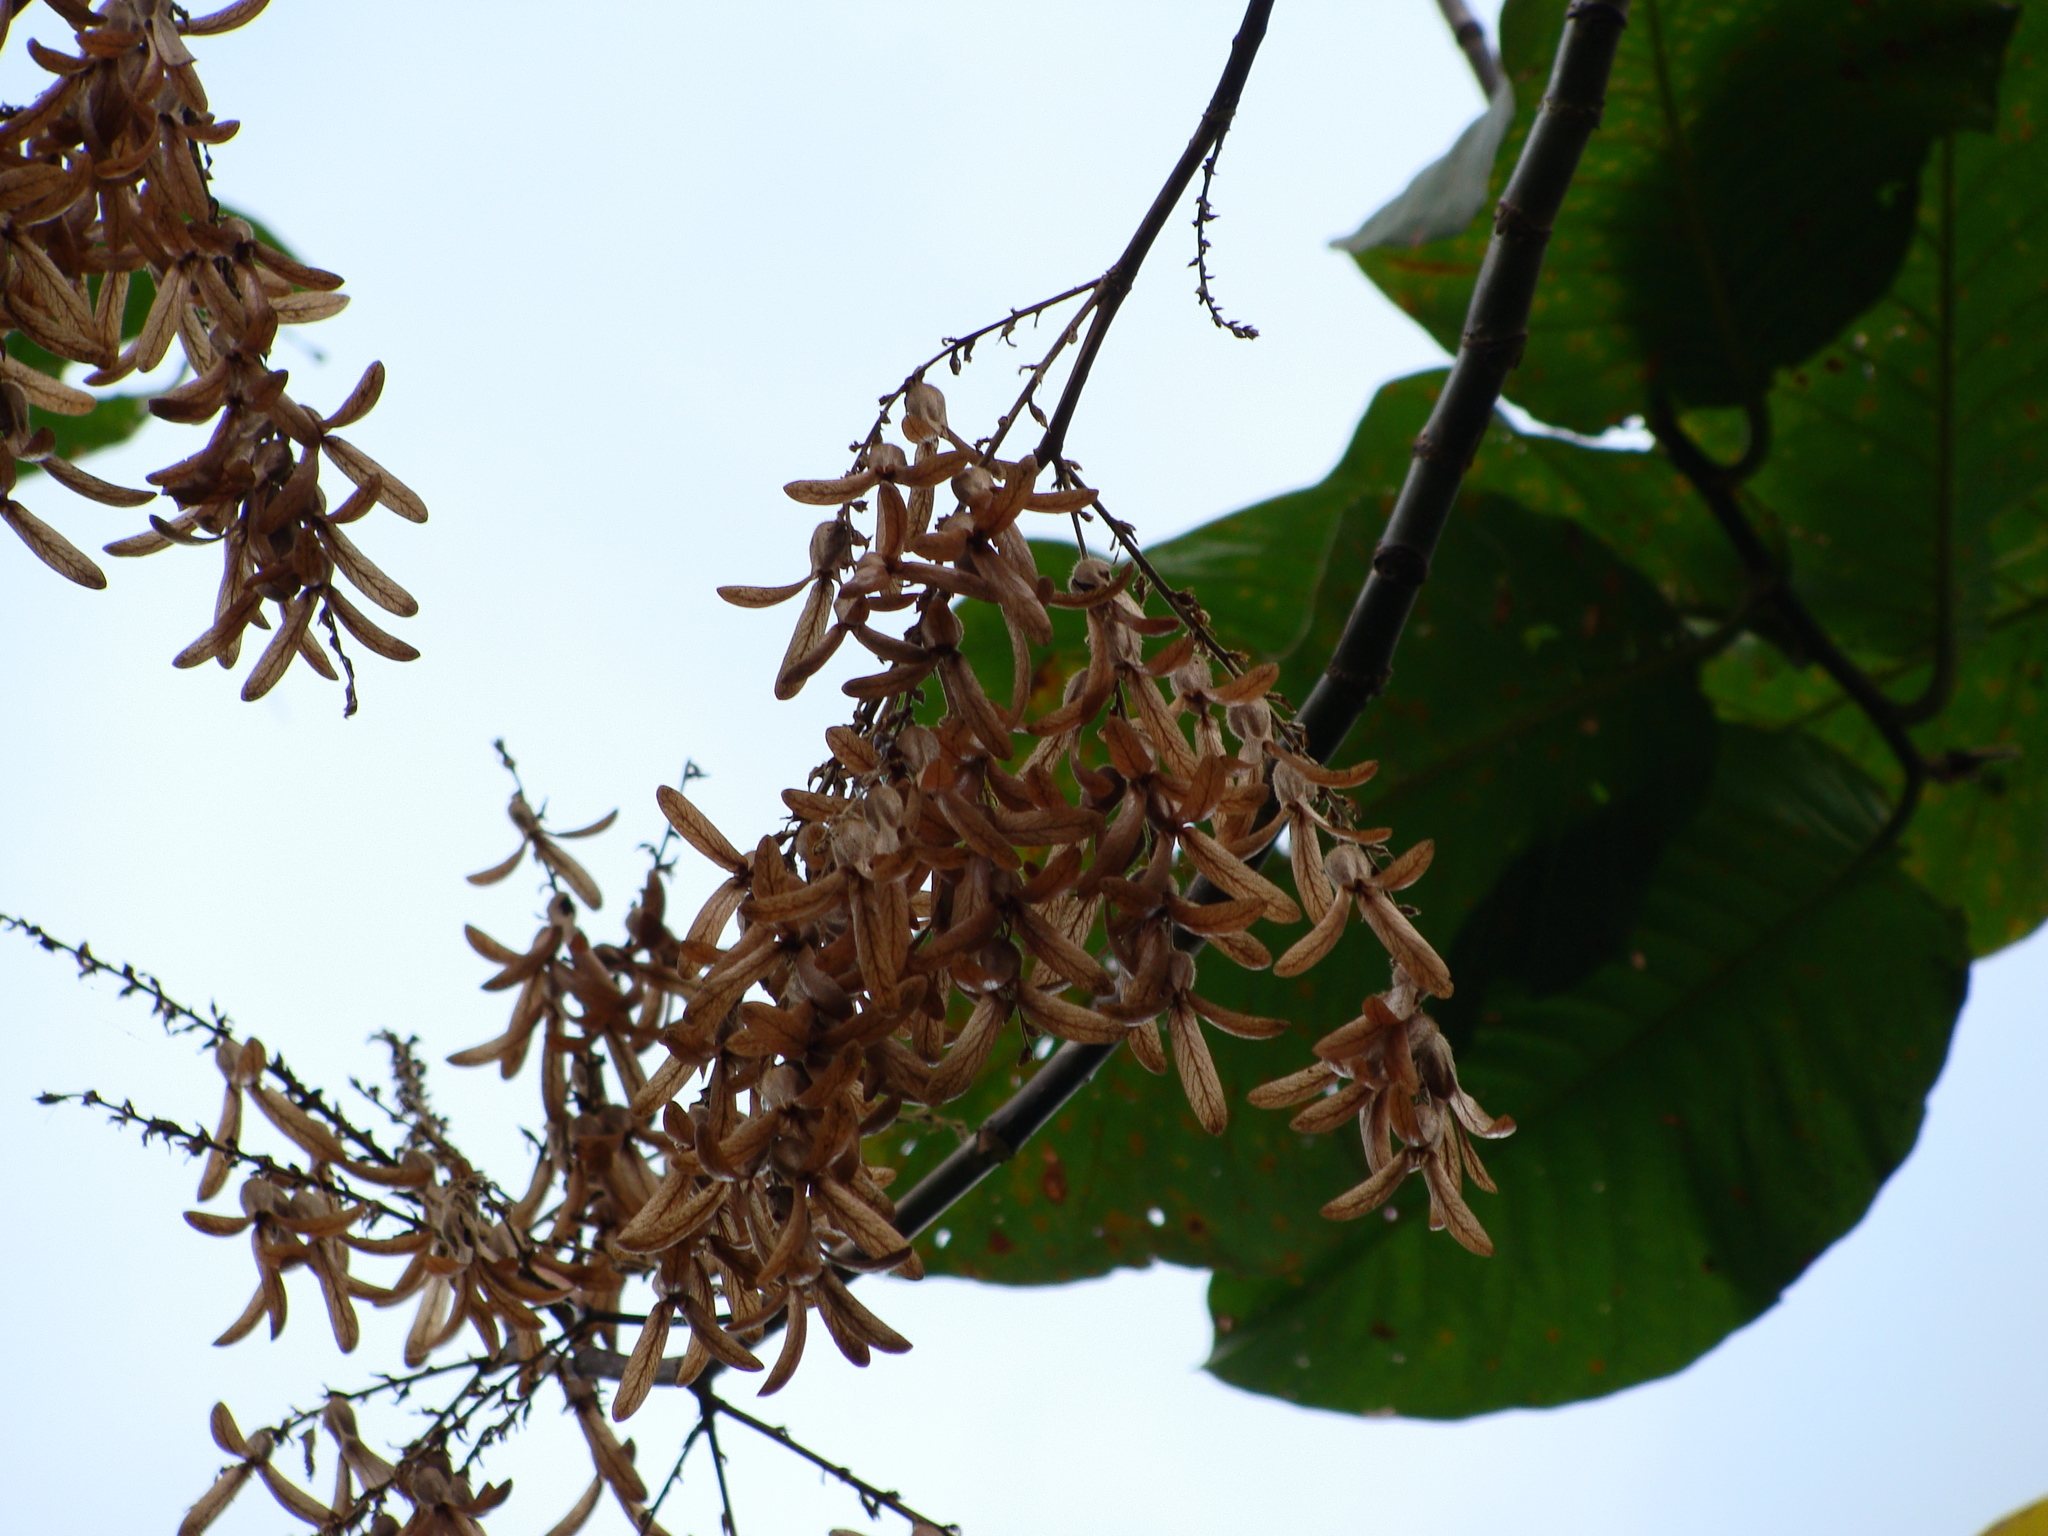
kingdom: Plantae
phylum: Tracheophyta
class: Magnoliopsida
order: Caryophyllales
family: Polygonaceae
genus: Triplaris
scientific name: Triplaris melaenodendron
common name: Long john
